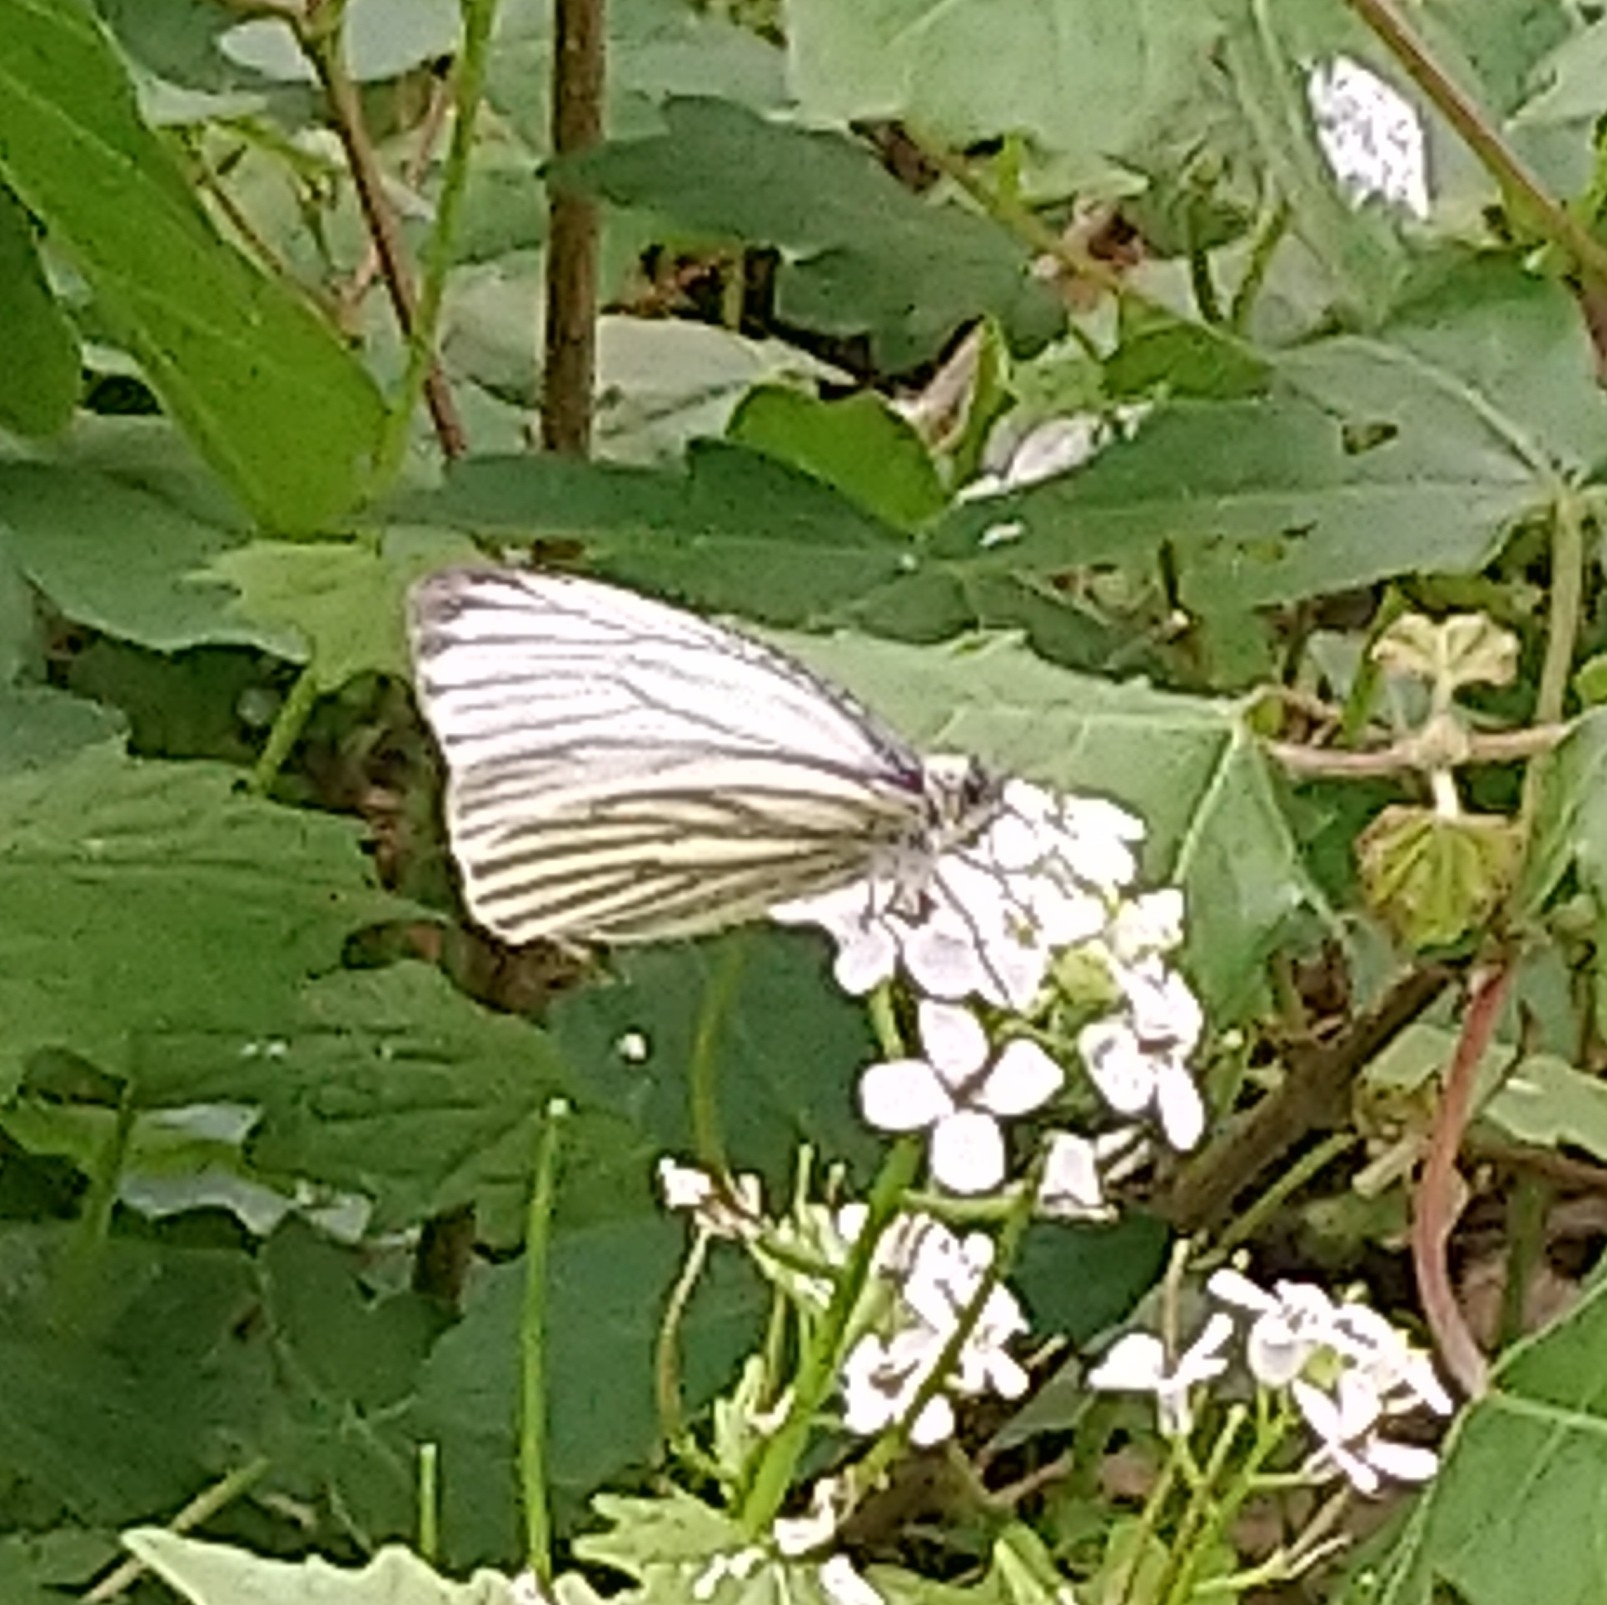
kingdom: Animalia
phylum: Arthropoda
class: Insecta
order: Lepidoptera
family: Pieridae
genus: Pieris
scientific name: Pieris napi
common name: Green-veined white
